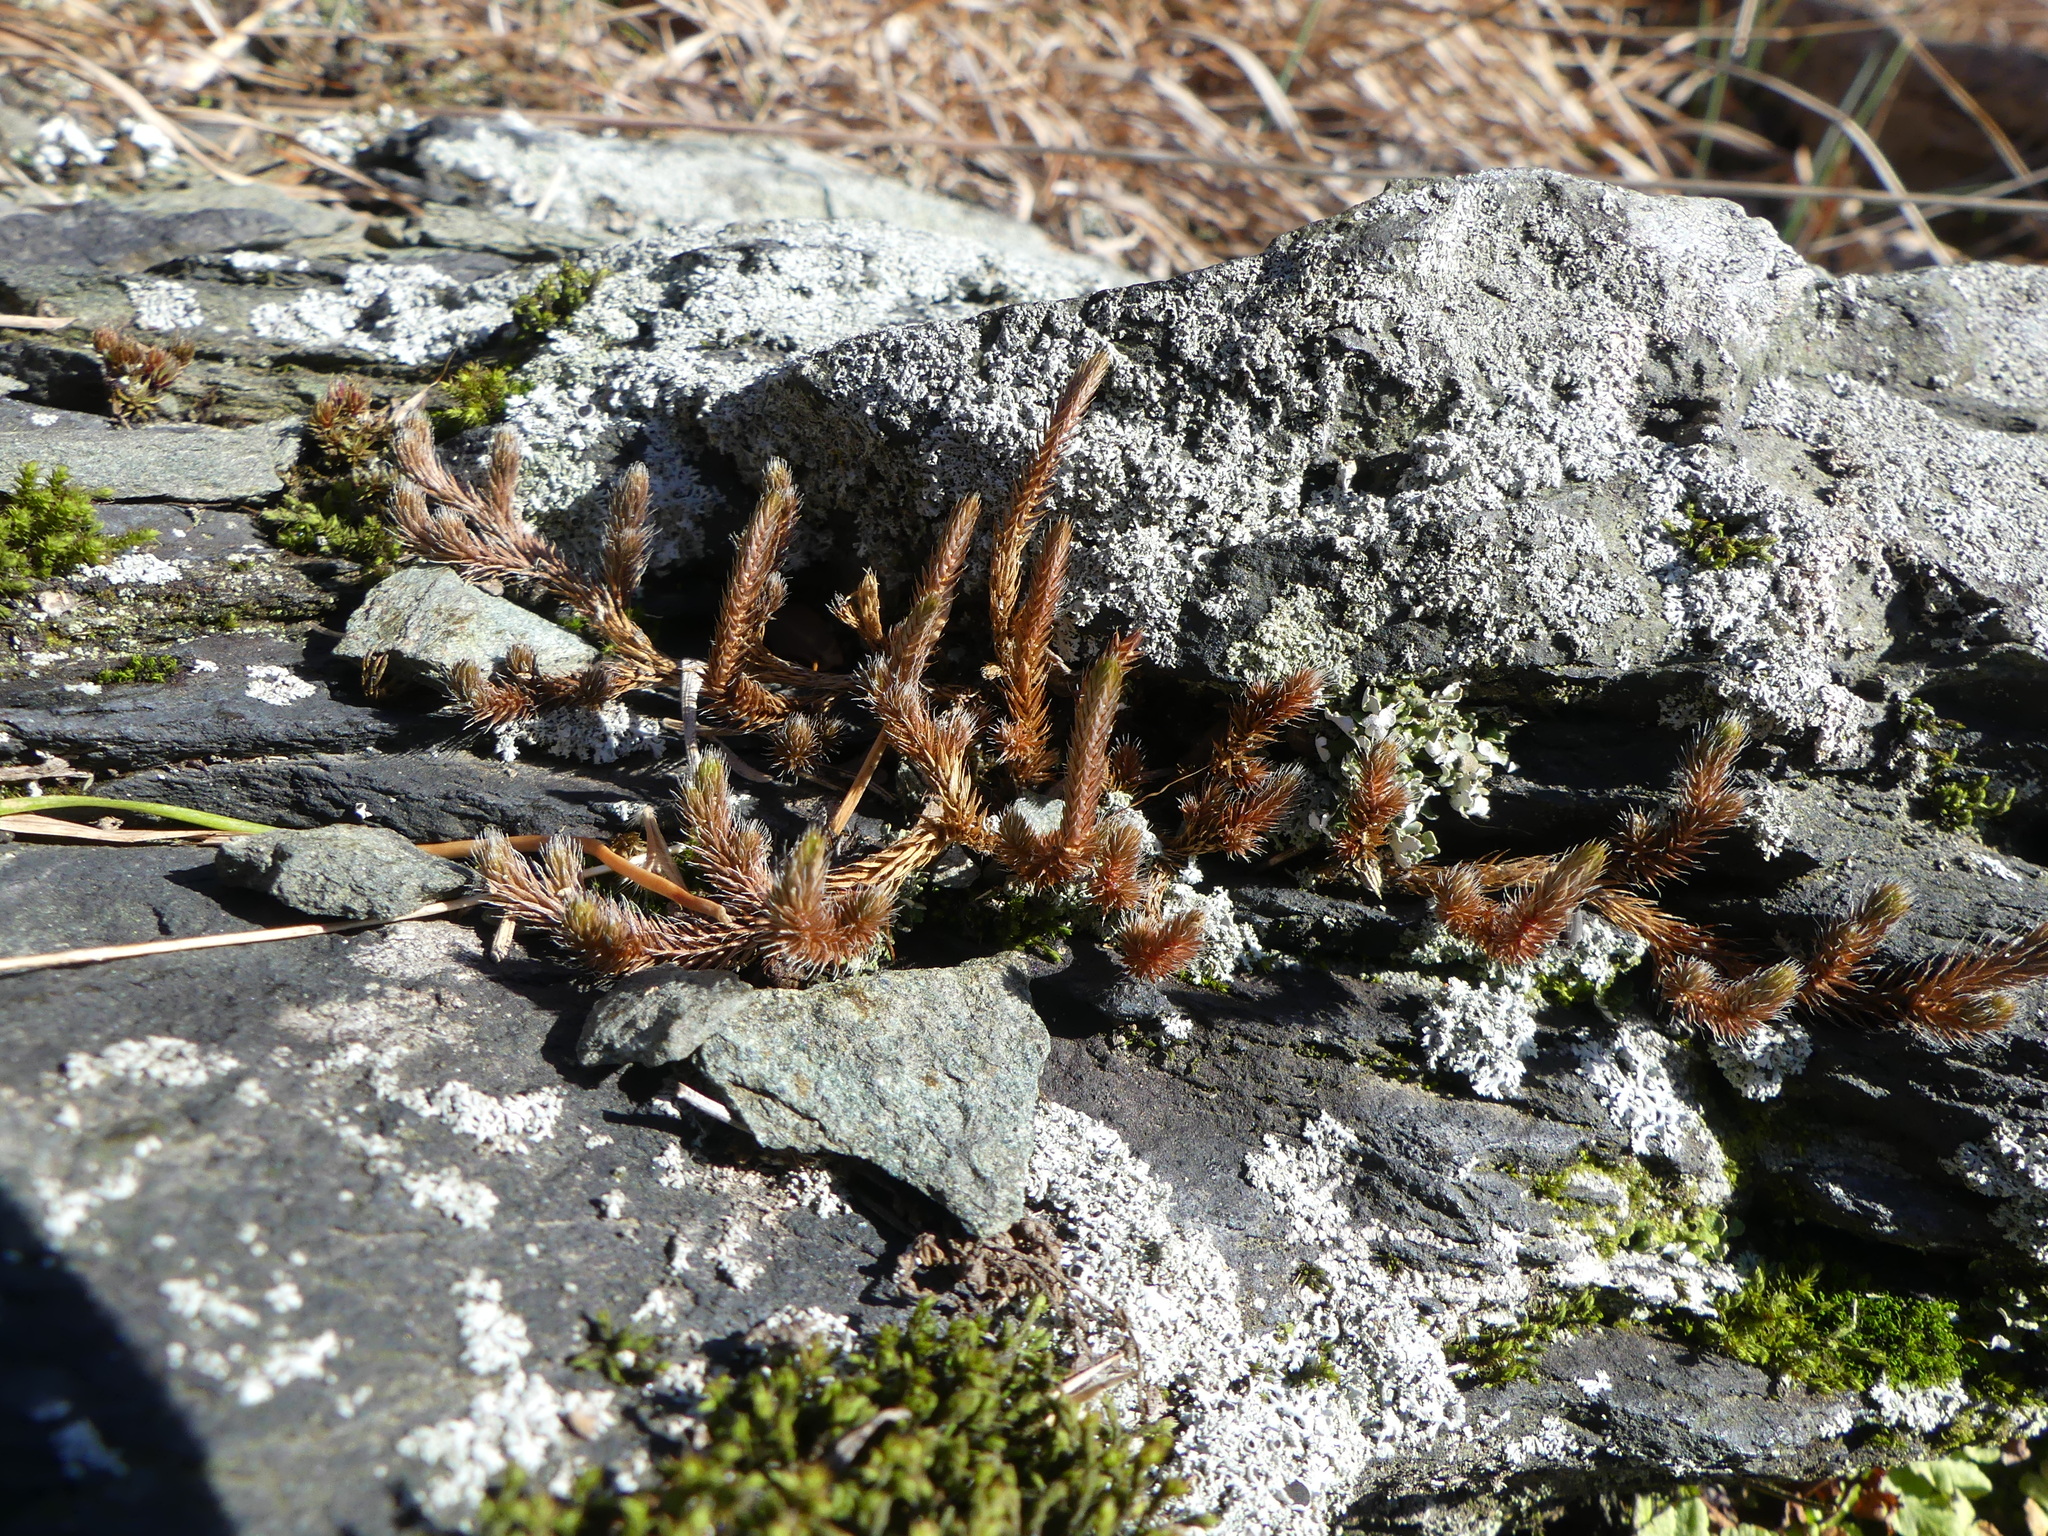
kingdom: Plantae
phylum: Tracheophyta
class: Lycopodiopsida
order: Selaginellales
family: Selaginellaceae
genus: Selaginella
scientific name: Selaginella rupestris
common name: Dwarf spikemoss
